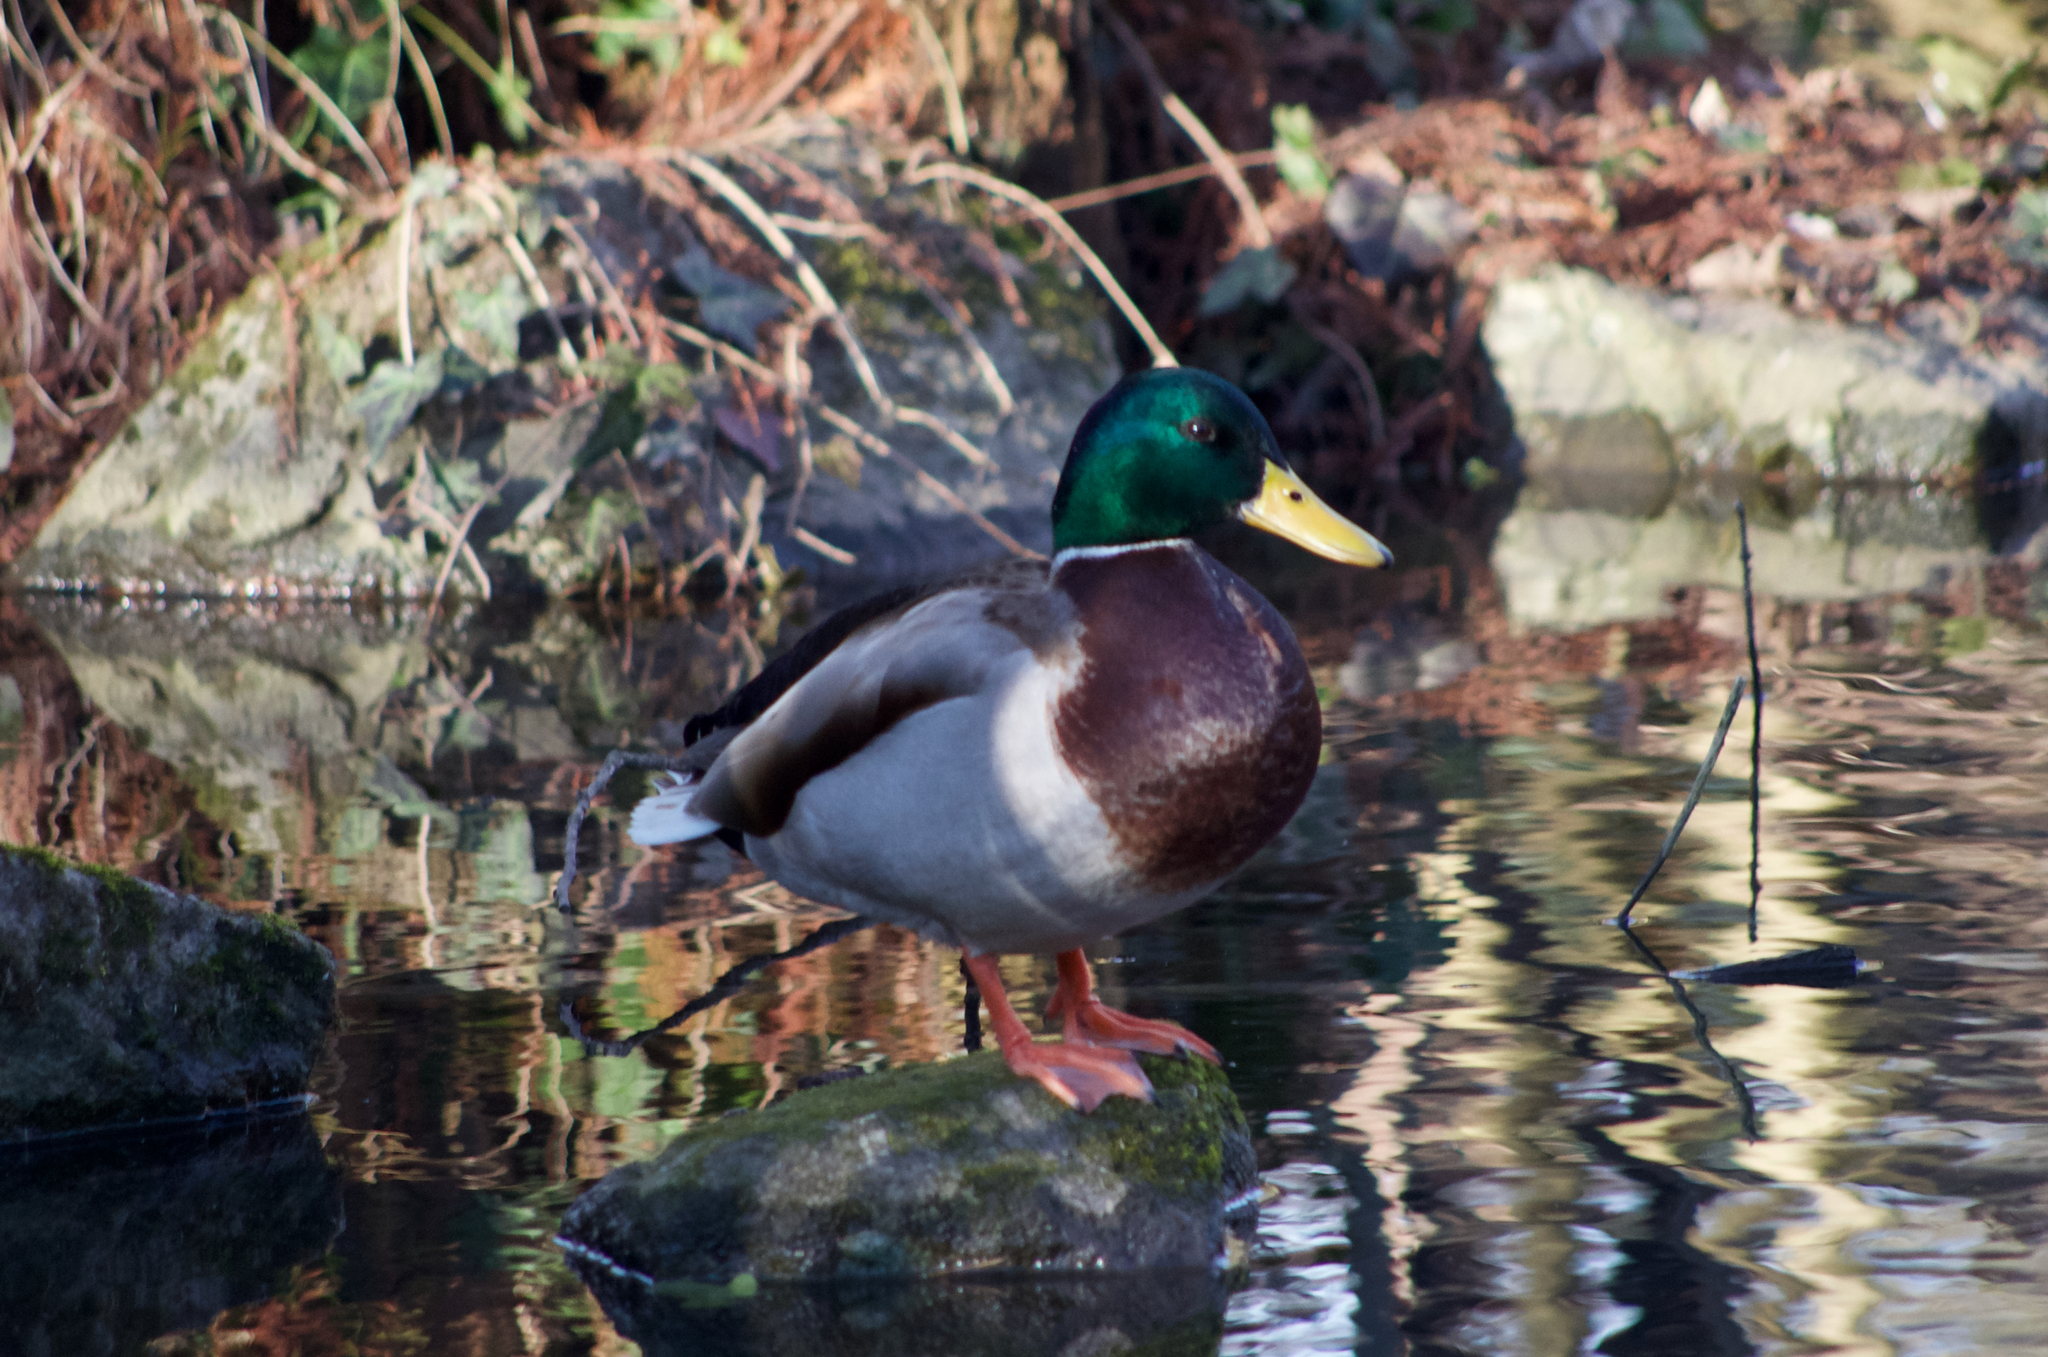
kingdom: Animalia
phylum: Chordata
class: Aves
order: Anseriformes
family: Anatidae
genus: Anas
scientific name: Anas platyrhynchos
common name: Mallard
